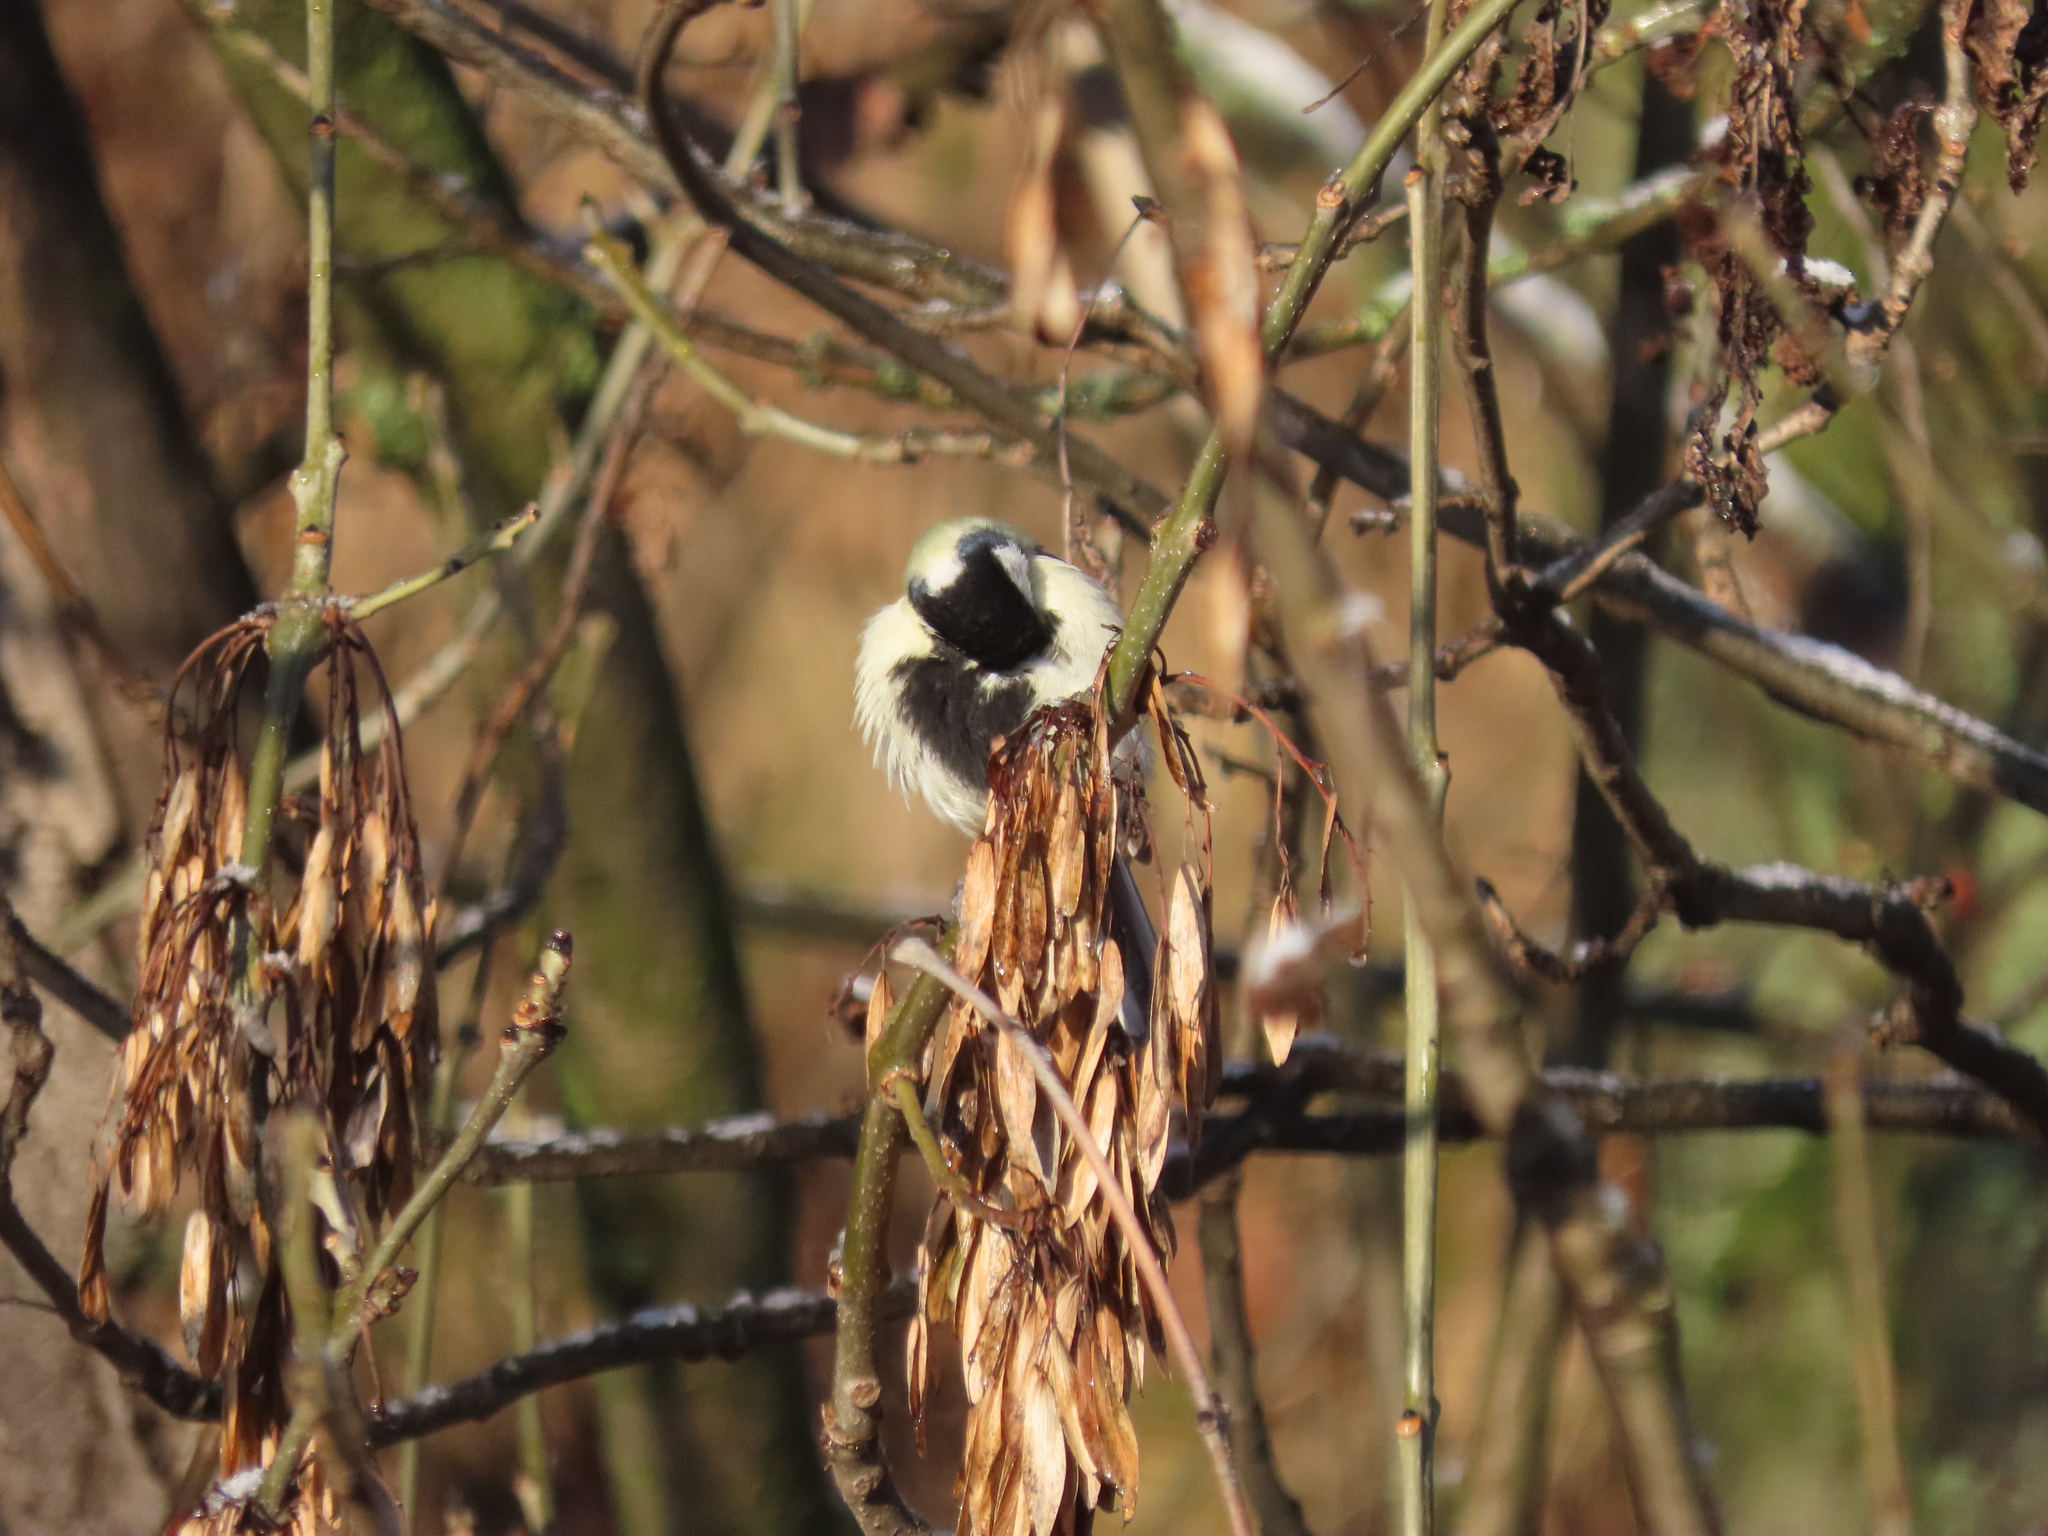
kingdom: Animalia
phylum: Chordata
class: Aves
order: Passeriformes
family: Paridae
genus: Parus
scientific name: Parus major
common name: Great tit
